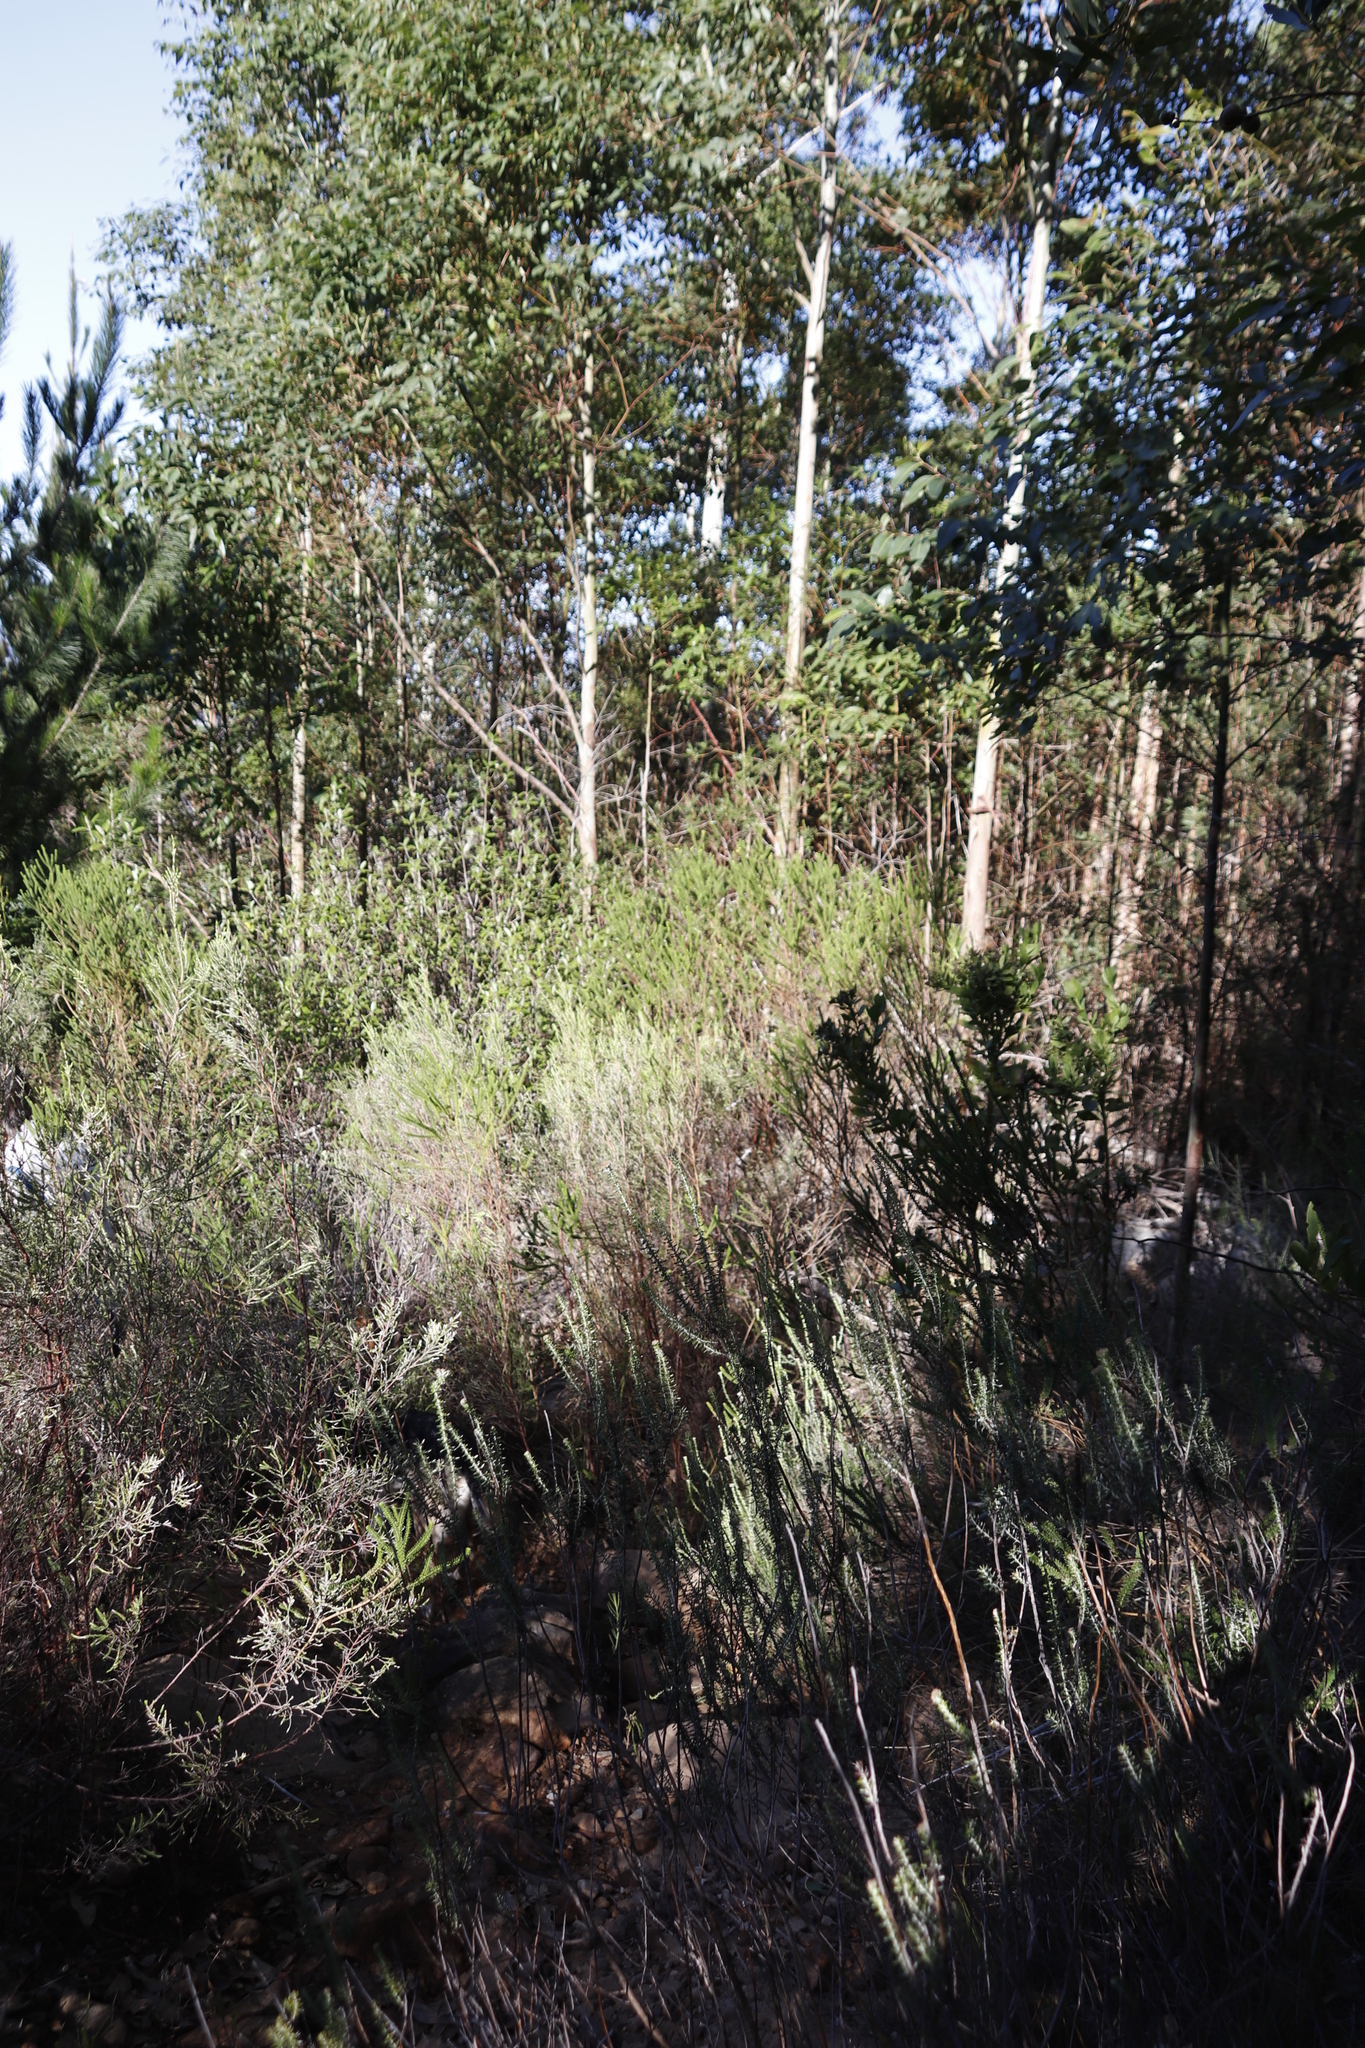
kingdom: Plantae
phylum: Tracheophyta
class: Magnoliopsida
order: Asterales
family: Asteraceae
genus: Euryops
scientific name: Euryops virgineus
